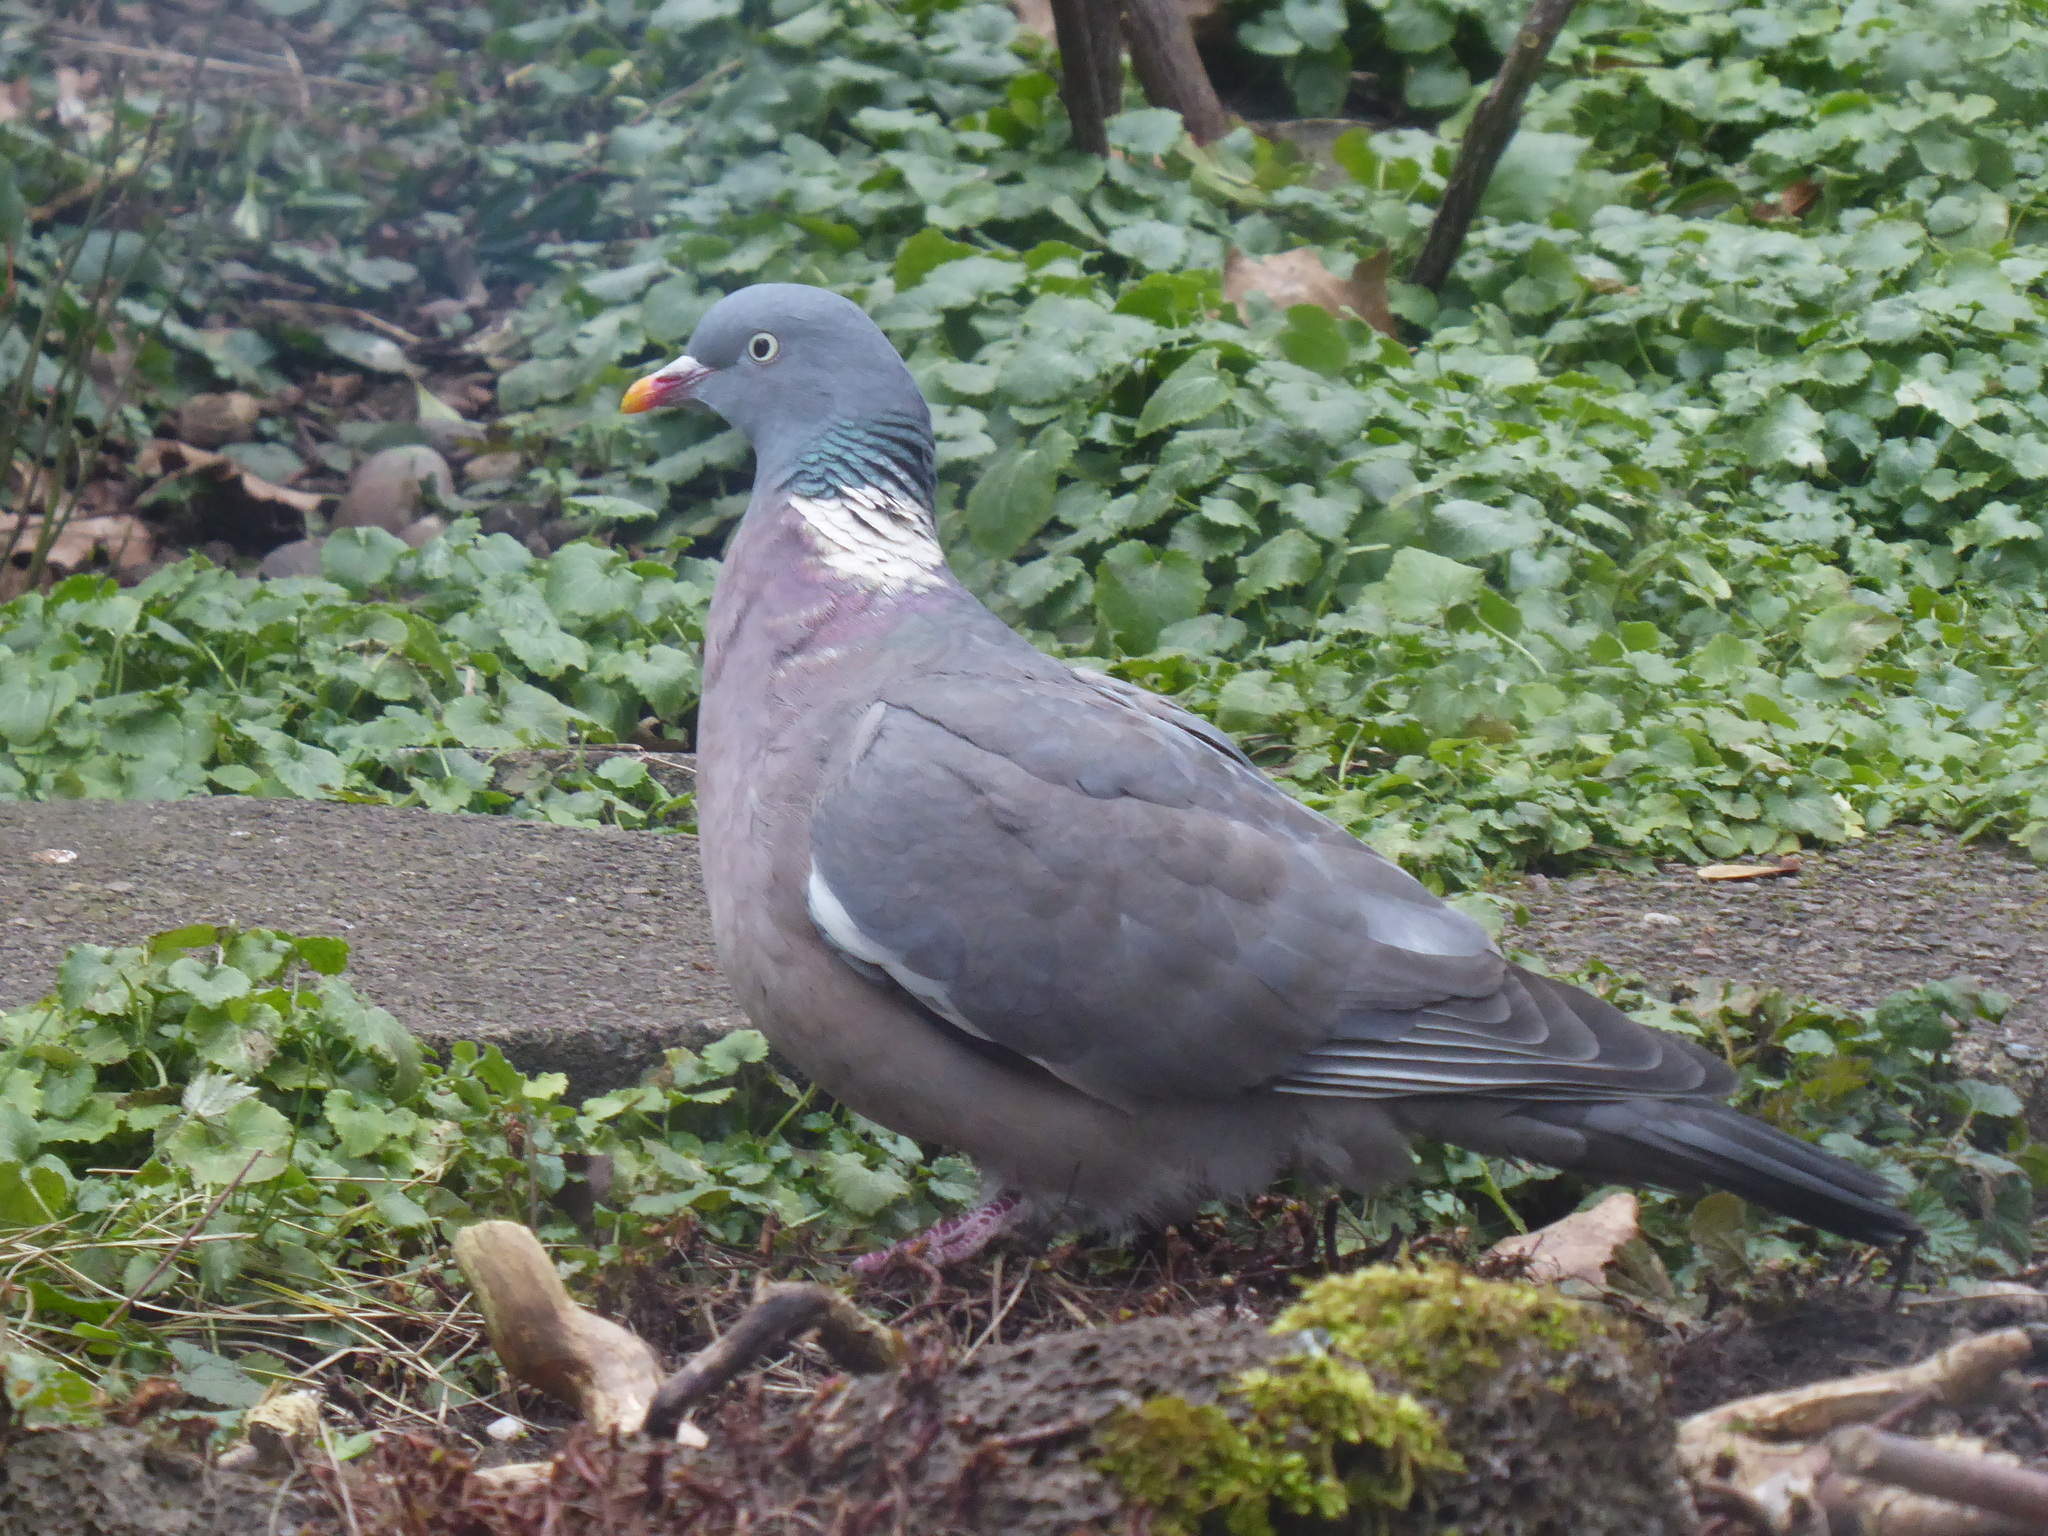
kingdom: Animalia
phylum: Chordata
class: Aves
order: Columbiformes
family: Columbidae
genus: Columba
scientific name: Columba palumbus
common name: Common wood pigeon
